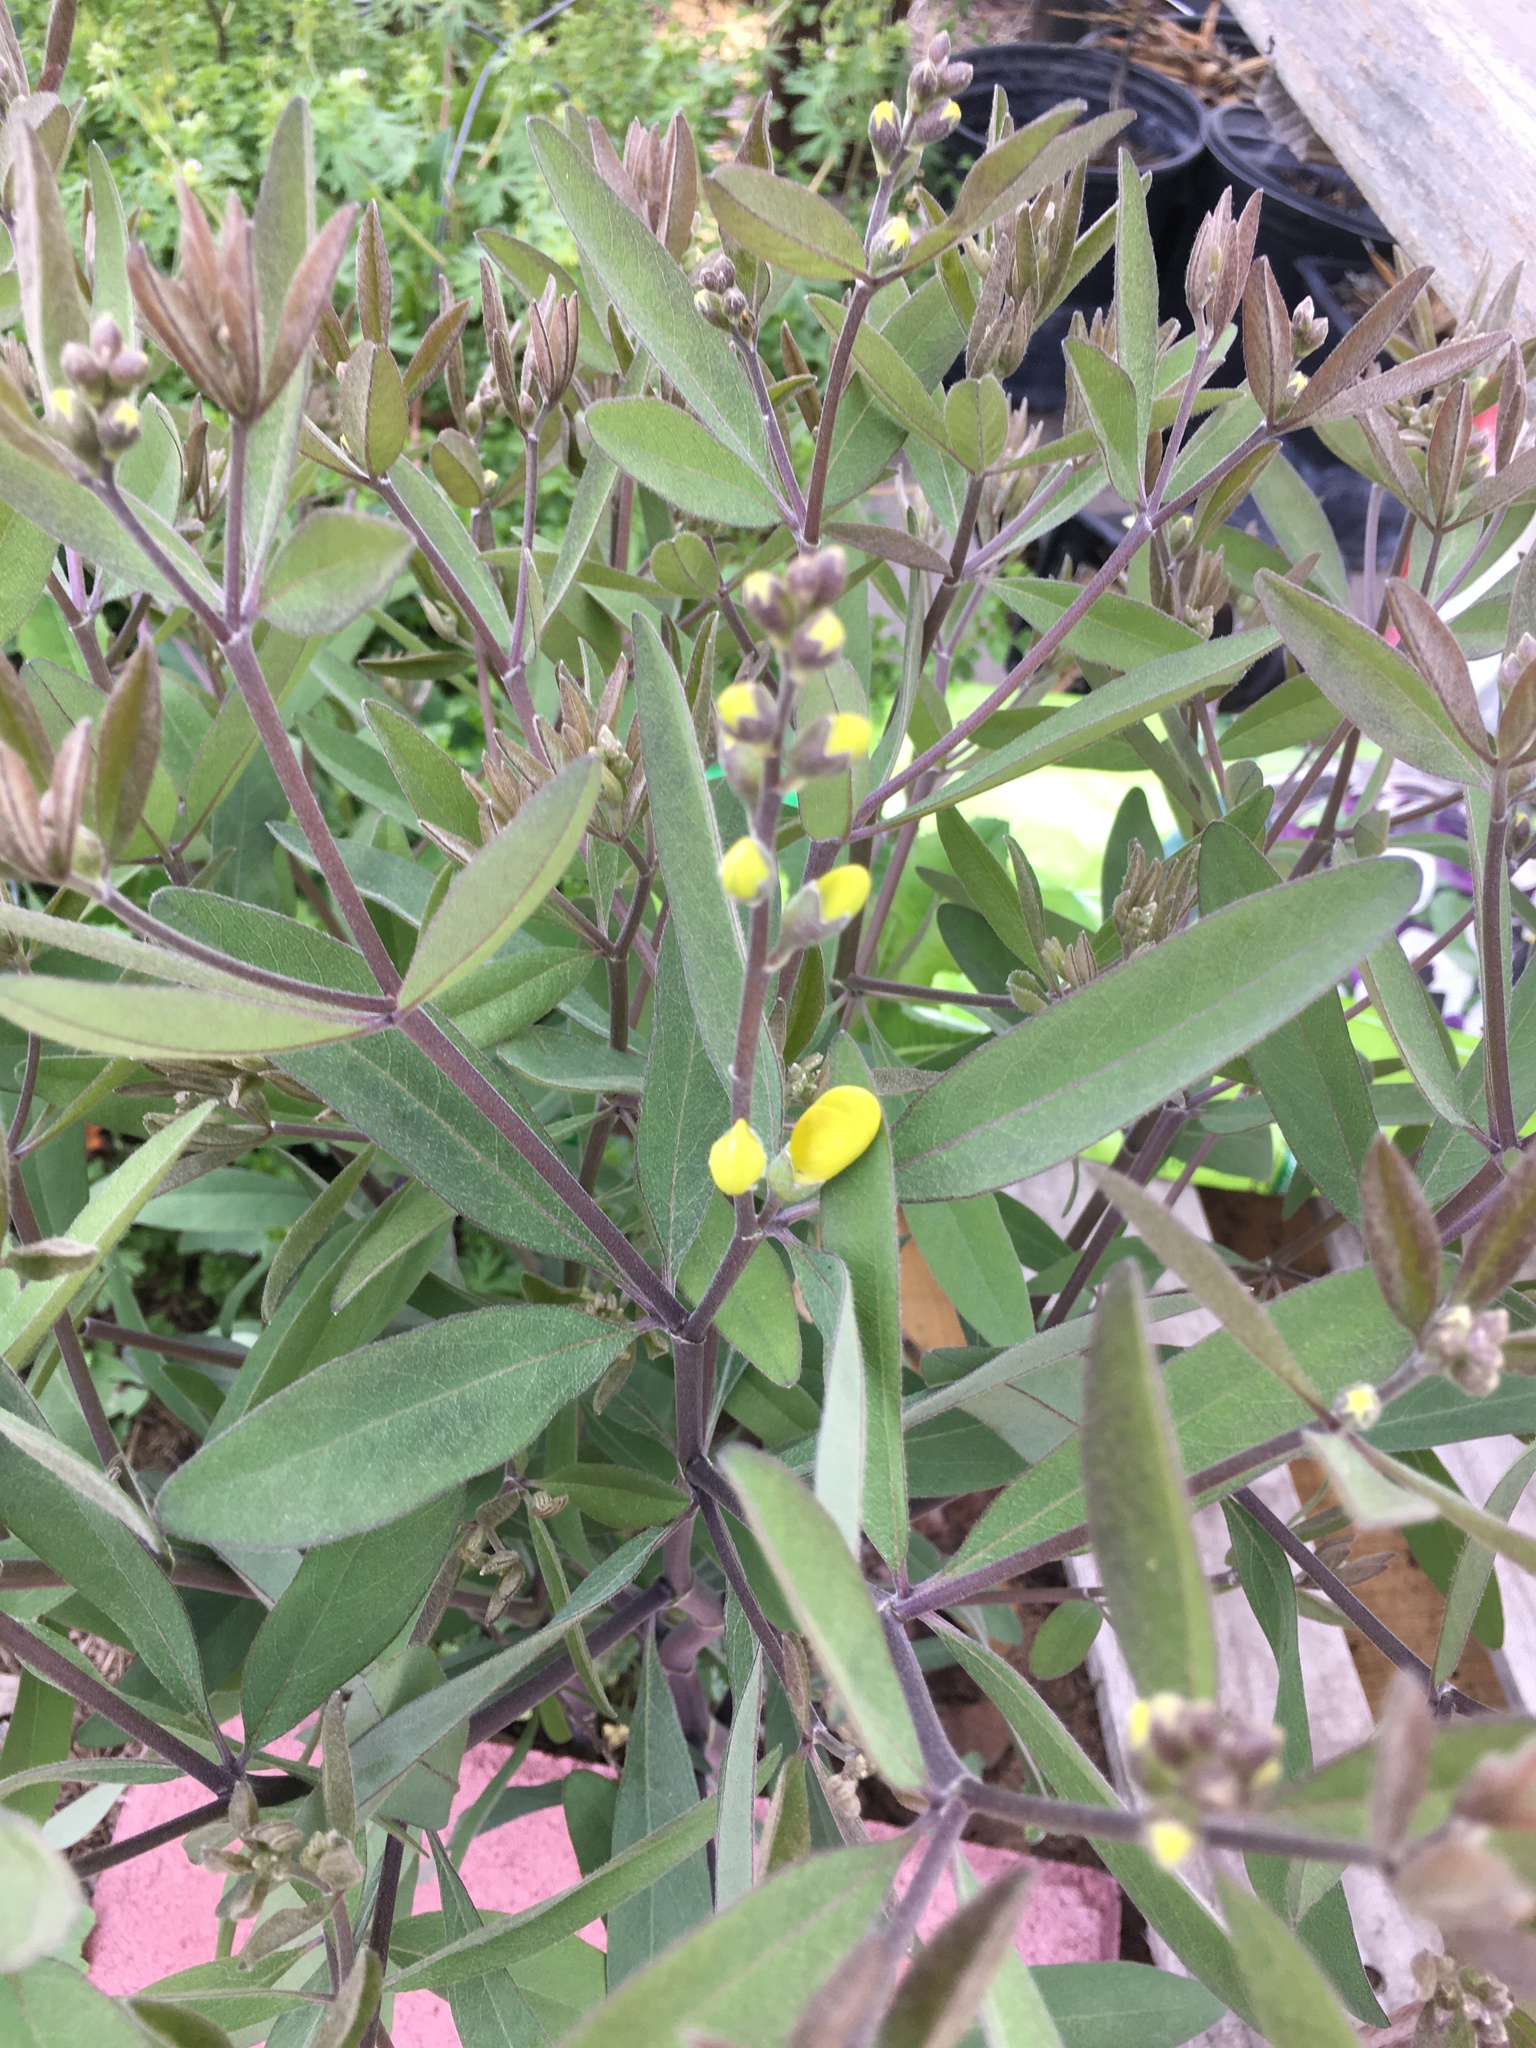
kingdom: Plantae
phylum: Tracheophyta
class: Magnoliopsida
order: Fabales
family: Fabaceae
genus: Baptisia
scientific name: Baptisia lanceolata
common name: Gopherweed
